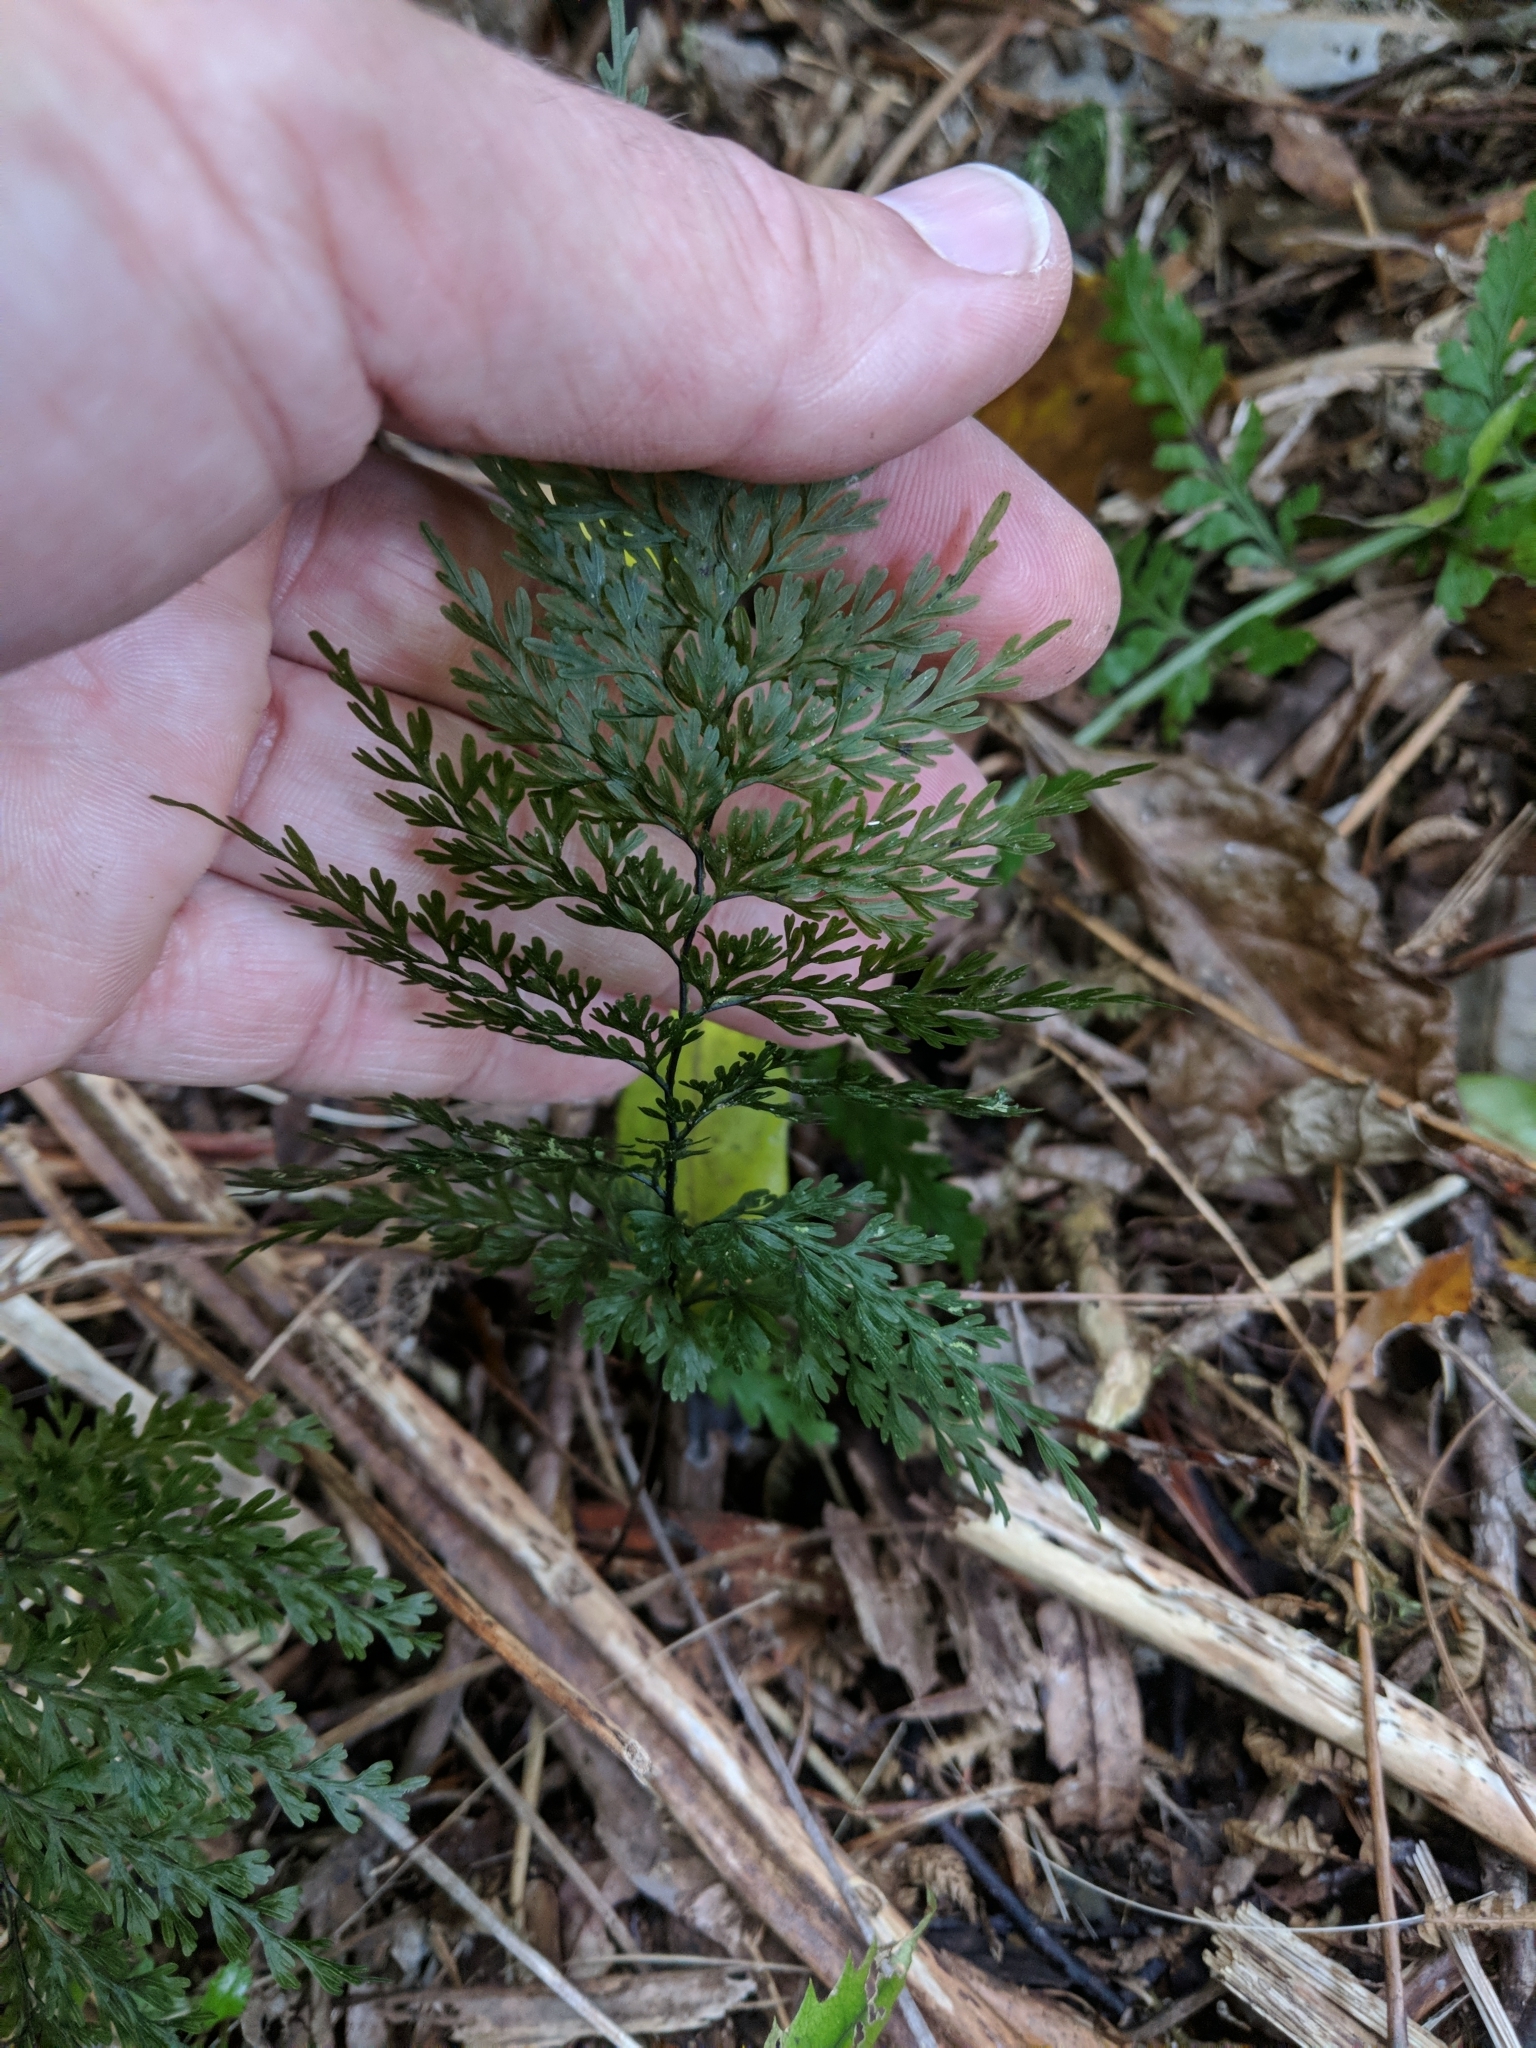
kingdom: Plantae
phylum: Tracheophyta
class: Polypodiopsida
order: Hymenophyllales
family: Hymenophyllaceae
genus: Hymenophyllum
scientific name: Hymenophyllum demissum
